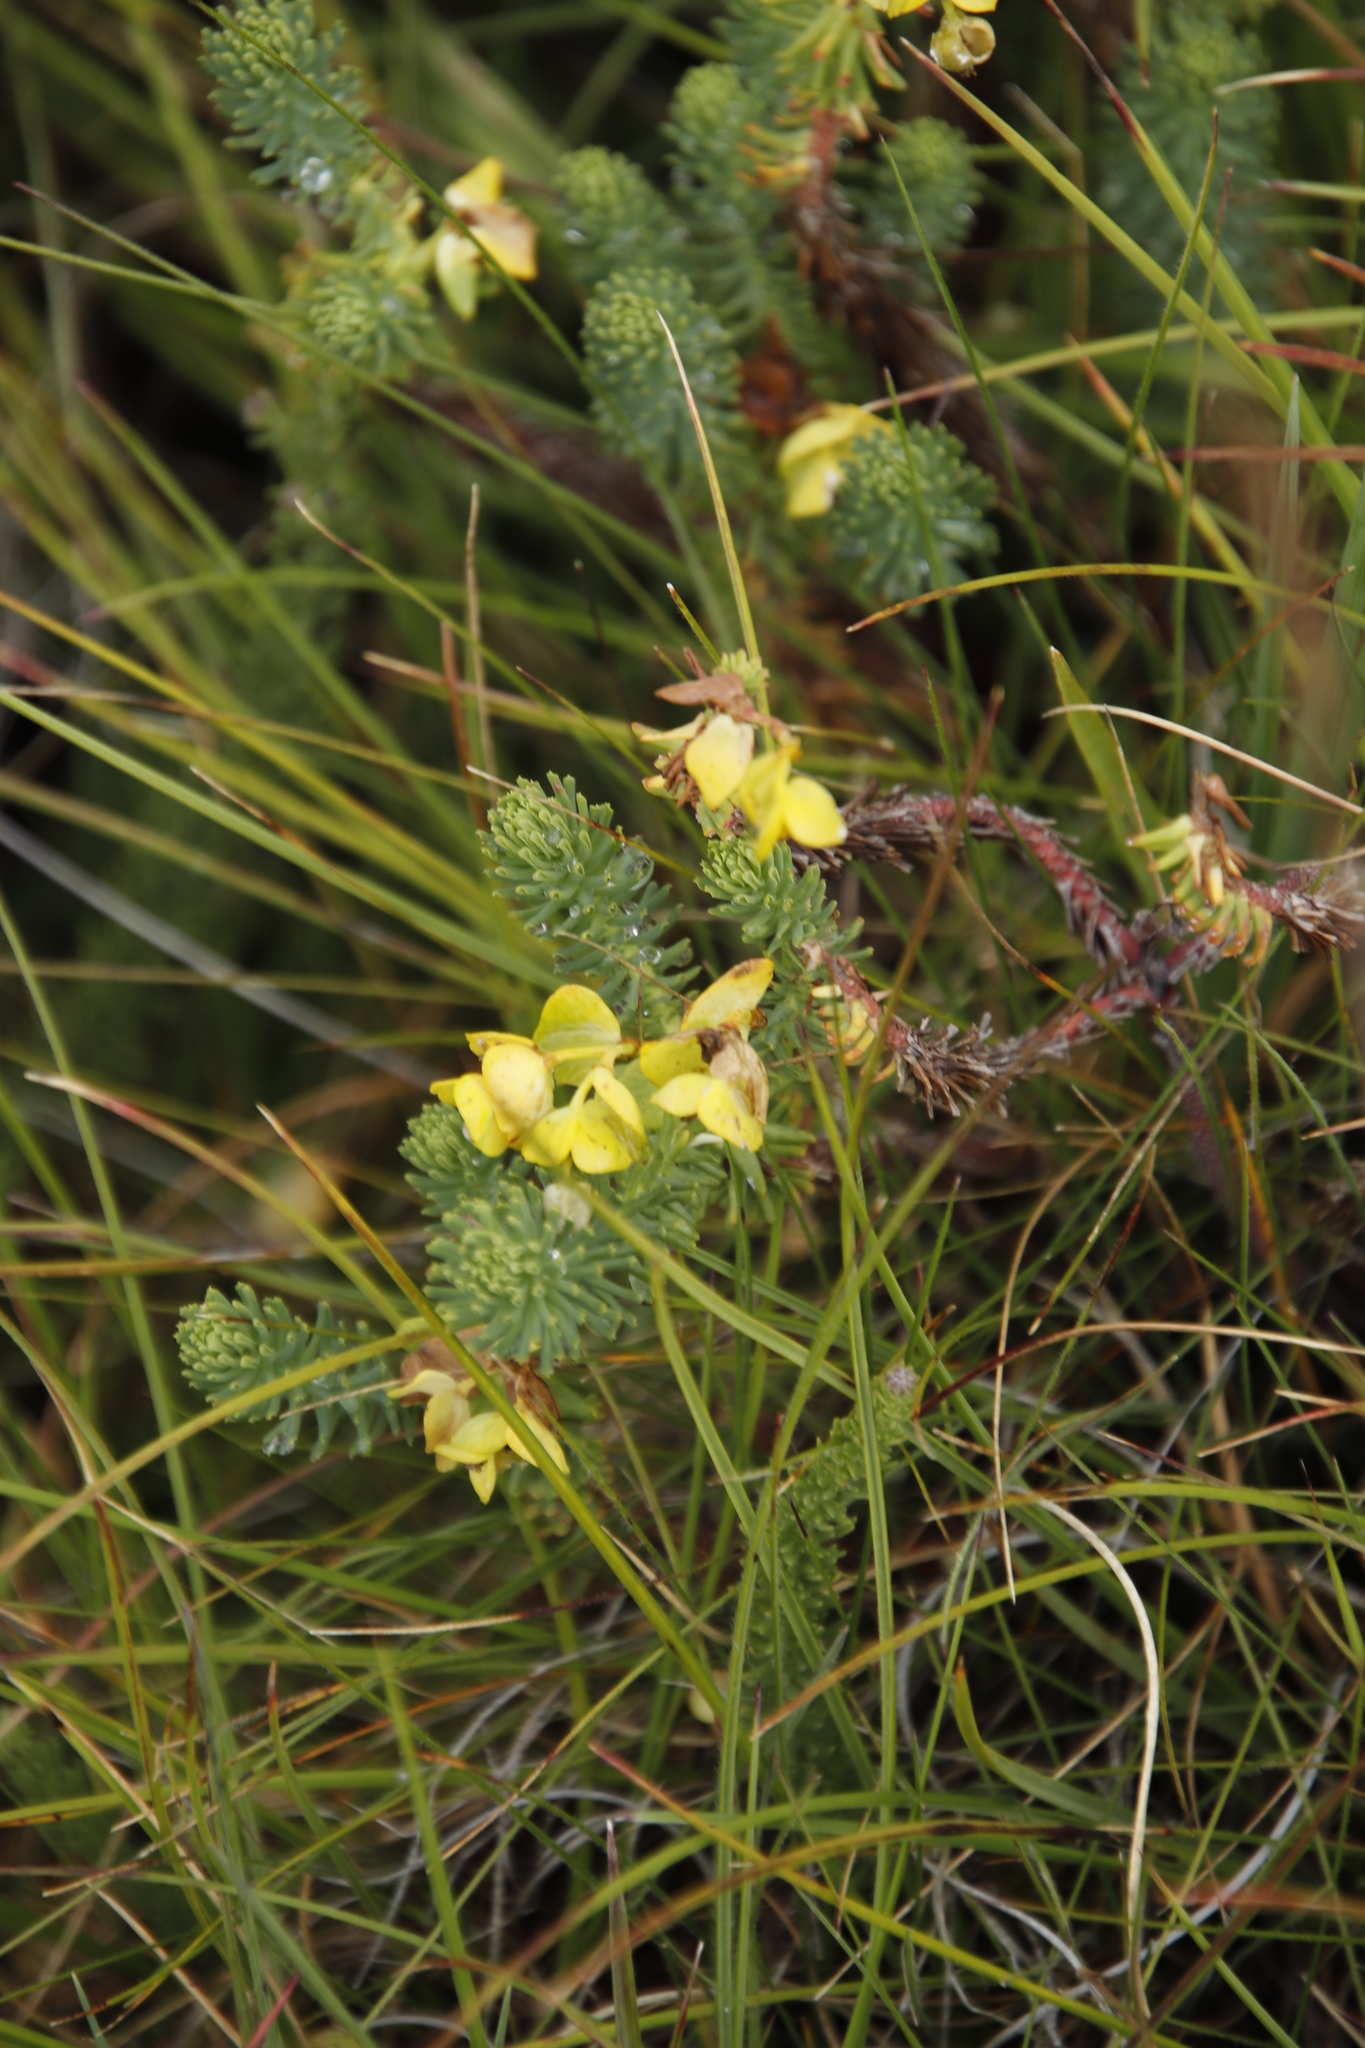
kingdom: Plantae
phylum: Tracheophyta
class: Magnoliopsida
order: Malpighiales
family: Euphorbiaceae
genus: Euphorbia
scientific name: Euphorbia ericoides
